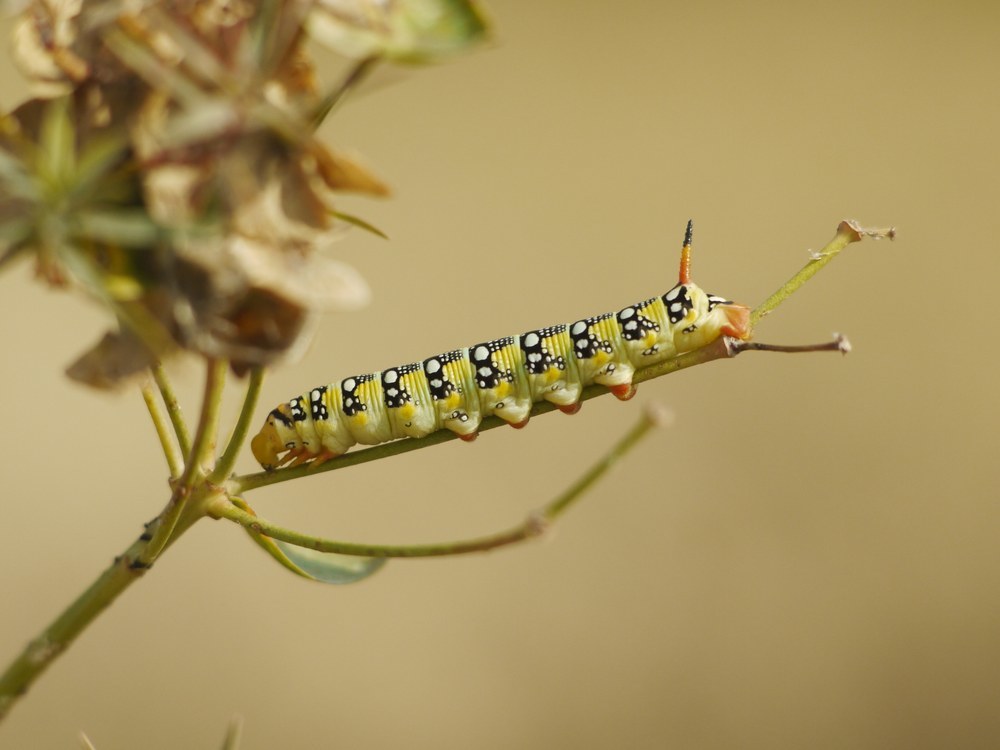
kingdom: Animalia
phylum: Arthropoda
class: Insecta
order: Lepidoptera
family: Sphingidae
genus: Hyles
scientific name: Hyles euphorbiae
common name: Spurge hawk-moth
